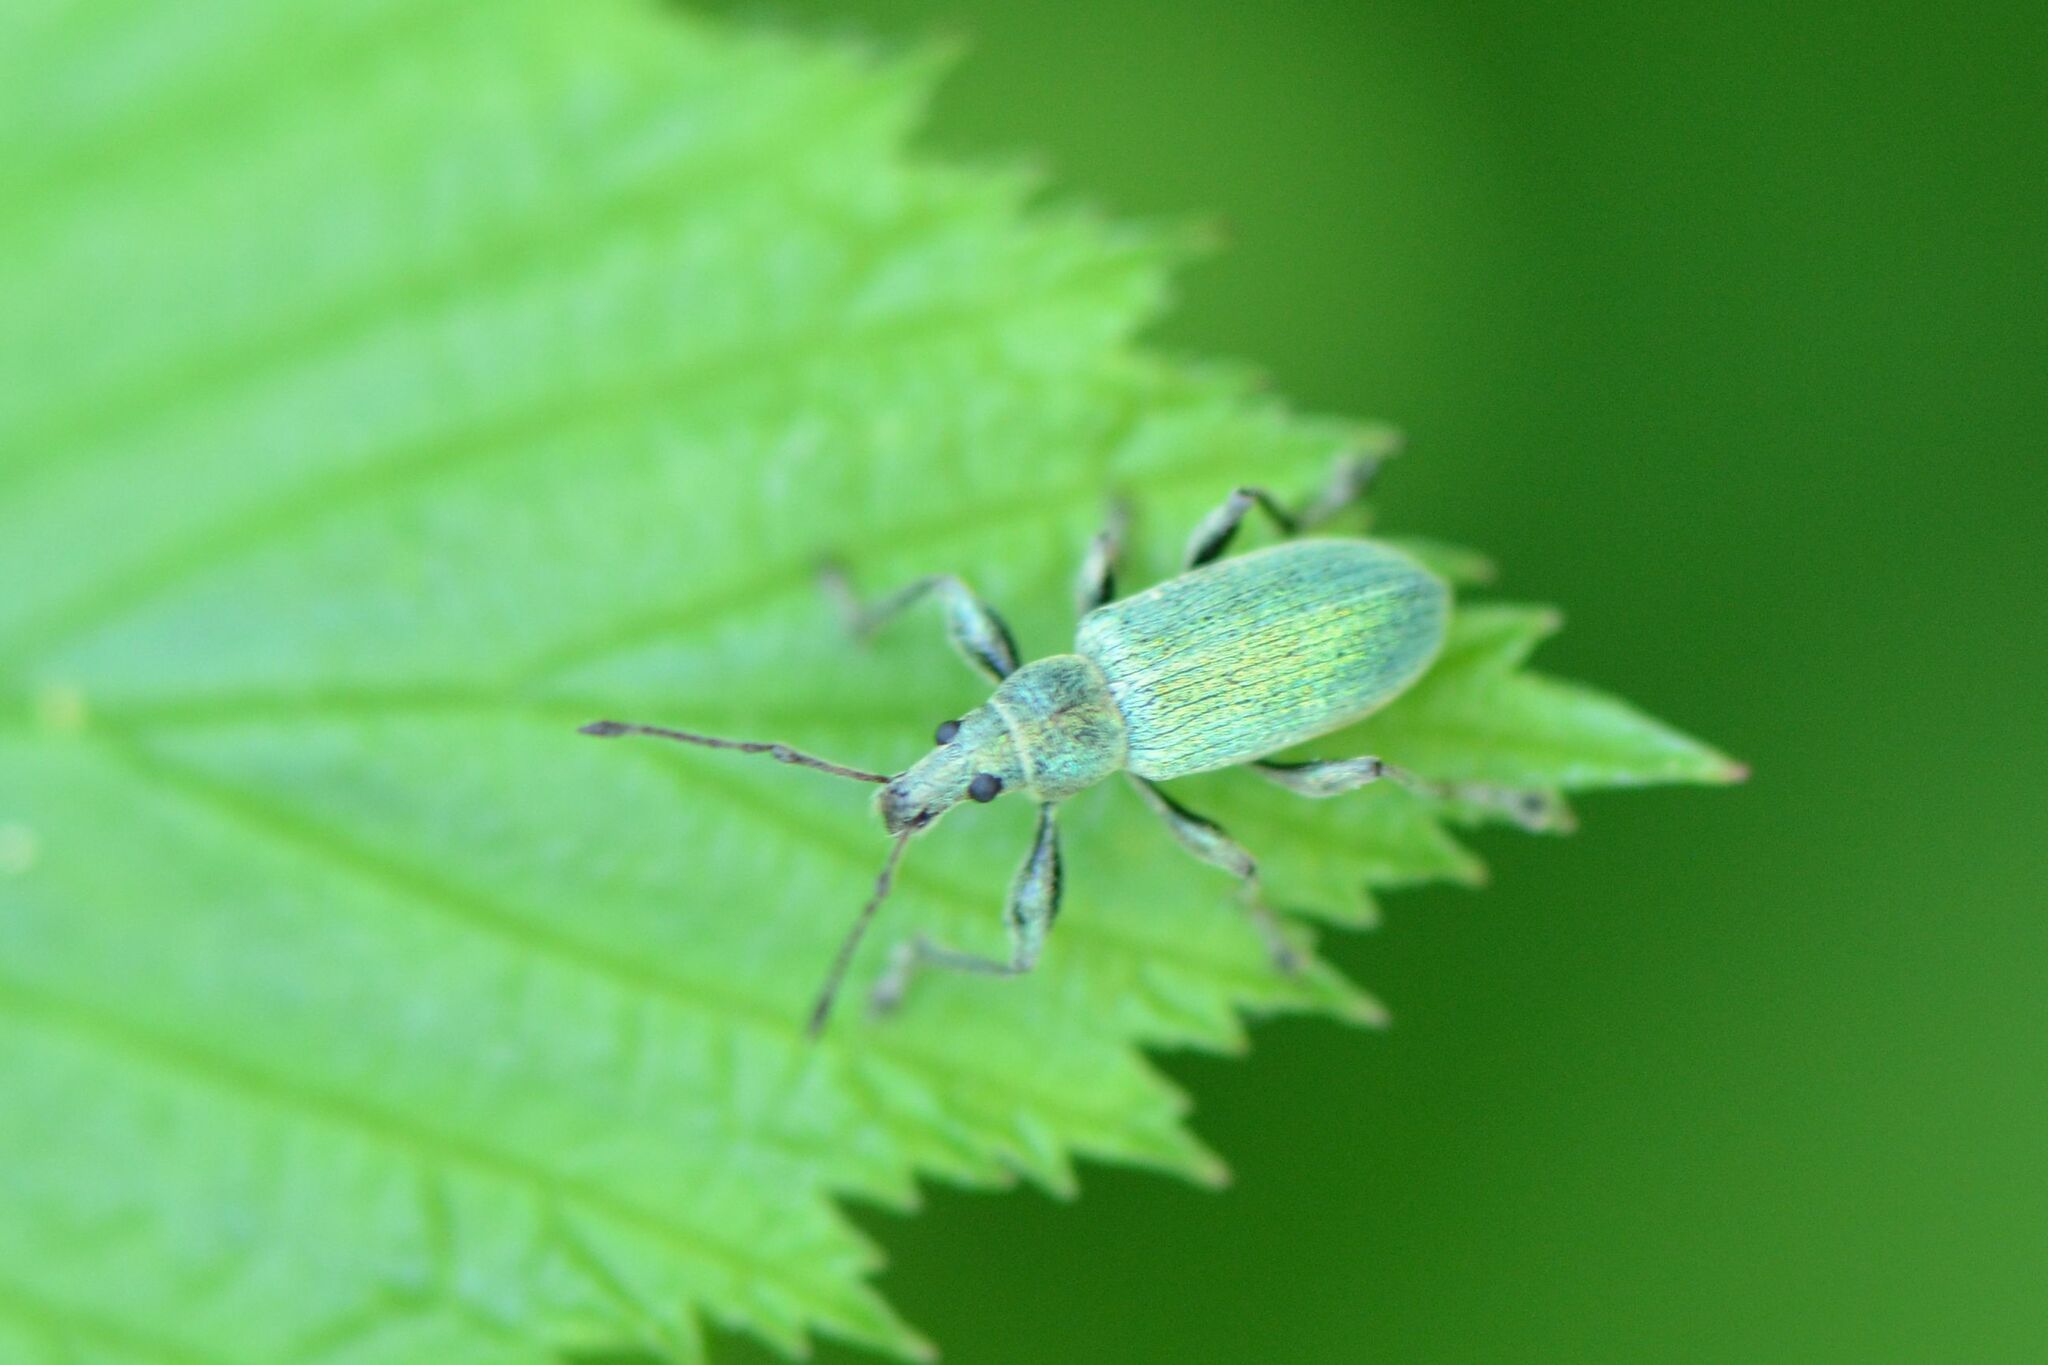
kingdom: Animalia
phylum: Arthropoda
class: Insecta
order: Coleoptera
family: Curculionidae
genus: Phyllobius
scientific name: Phyllobius pomaceus
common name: Green nettle weevil
